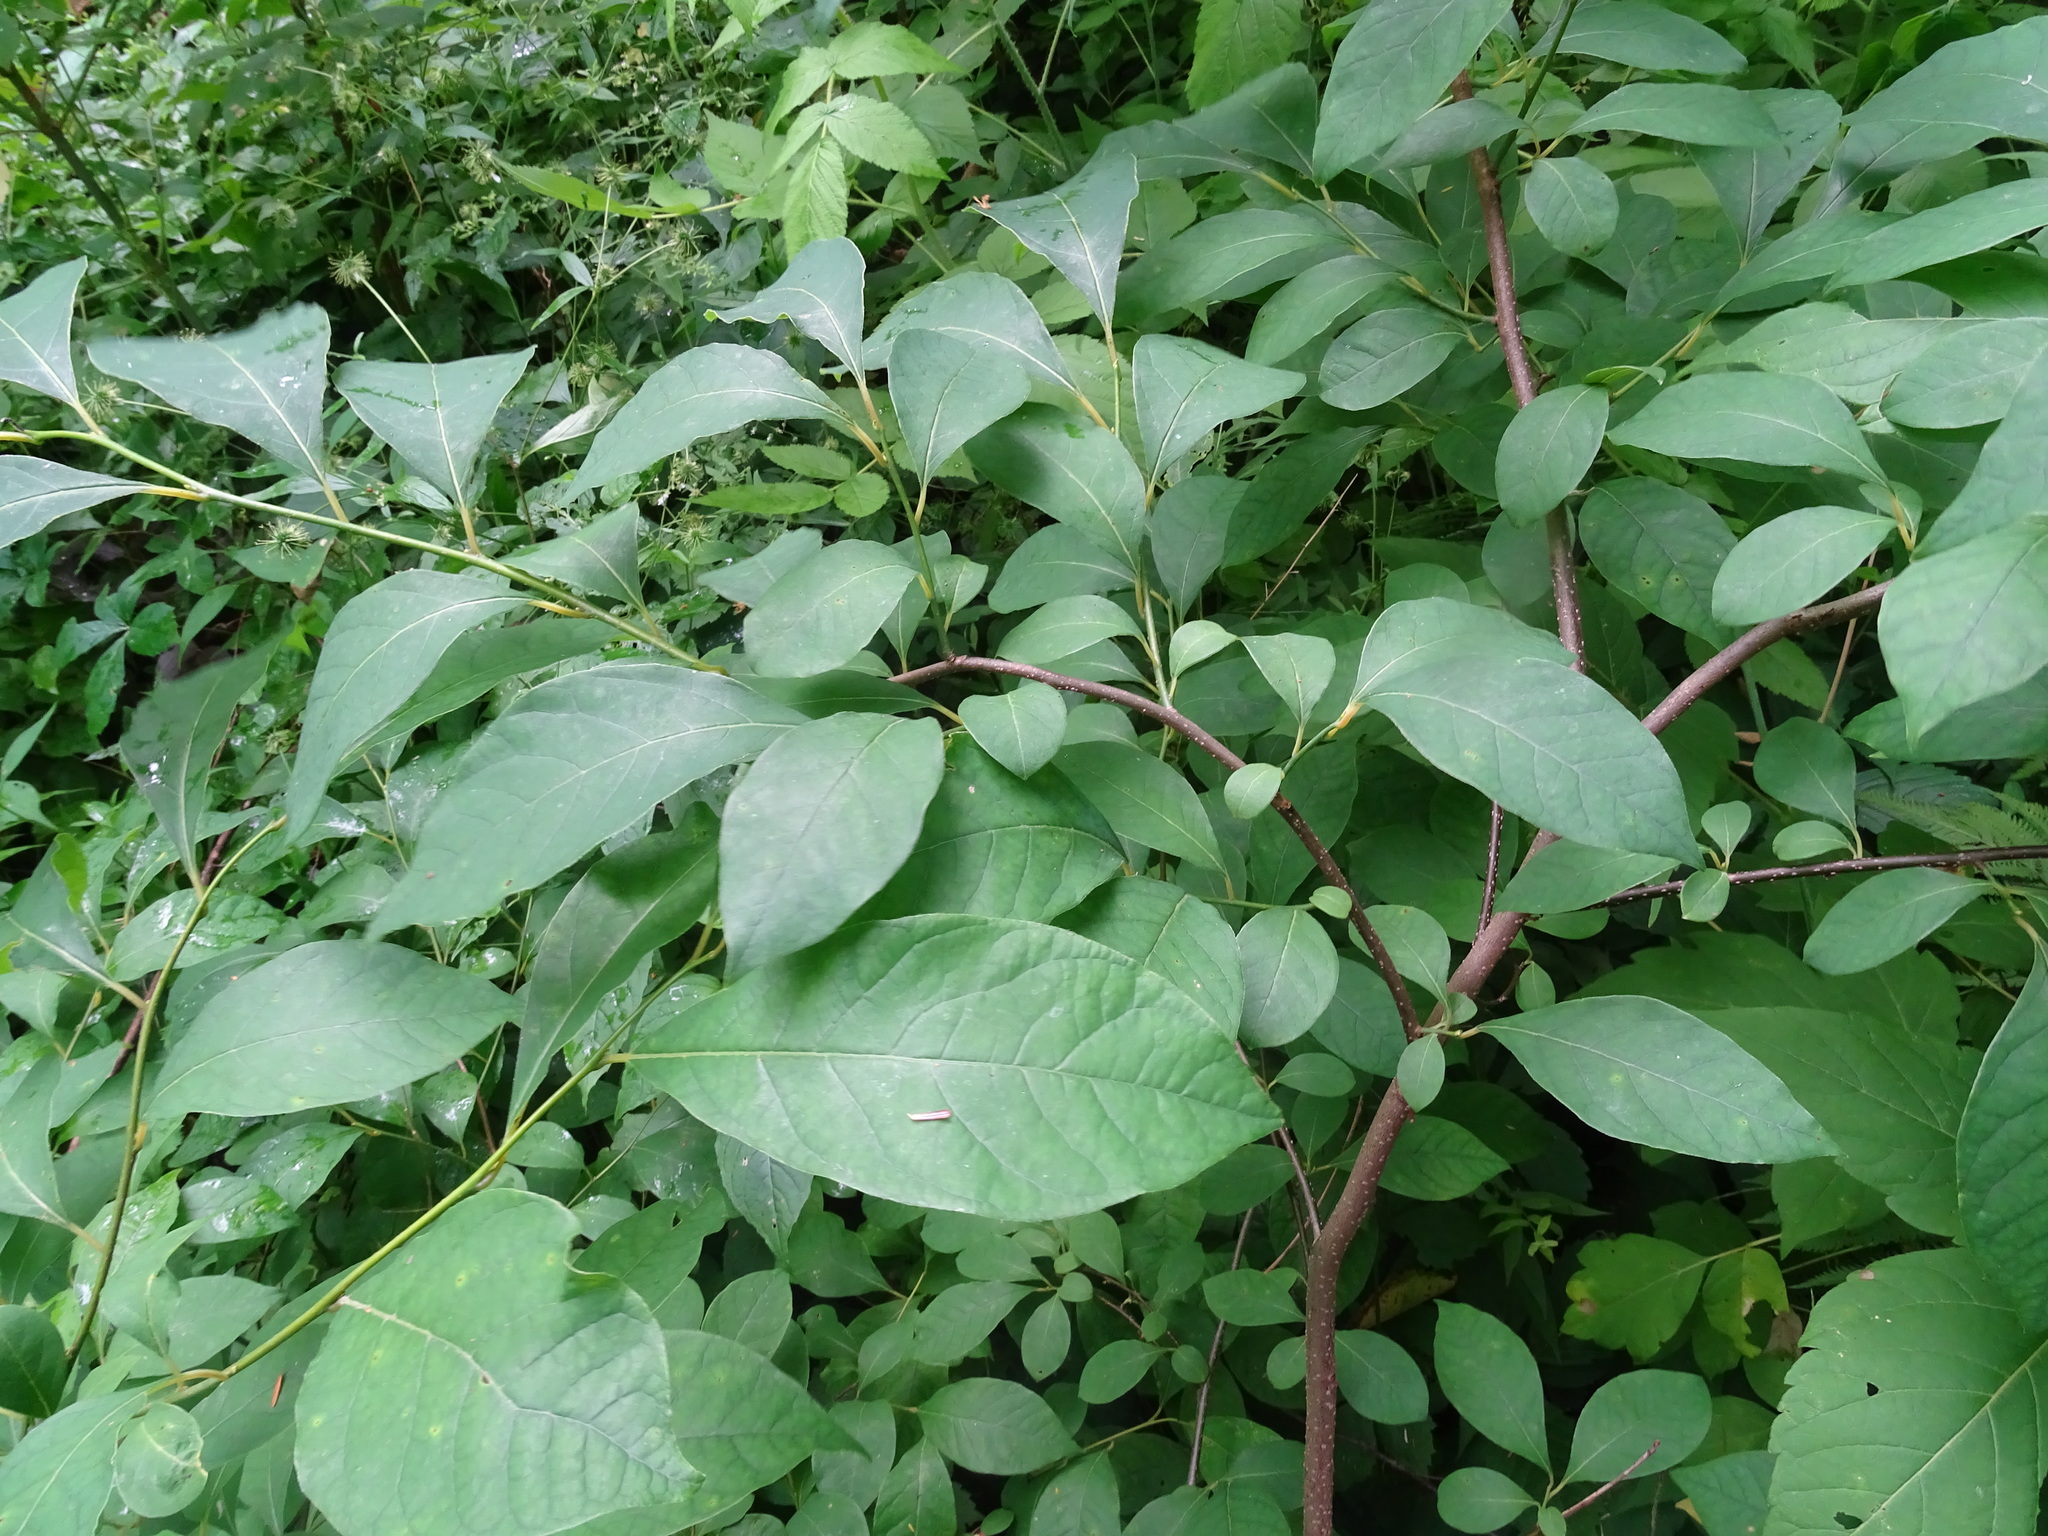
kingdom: Plantae
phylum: Tracheophyta
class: Magnoliopsida
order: Laurales
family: Lauraceae
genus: Lindera
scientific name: Lindera benzoin
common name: Spicebush
